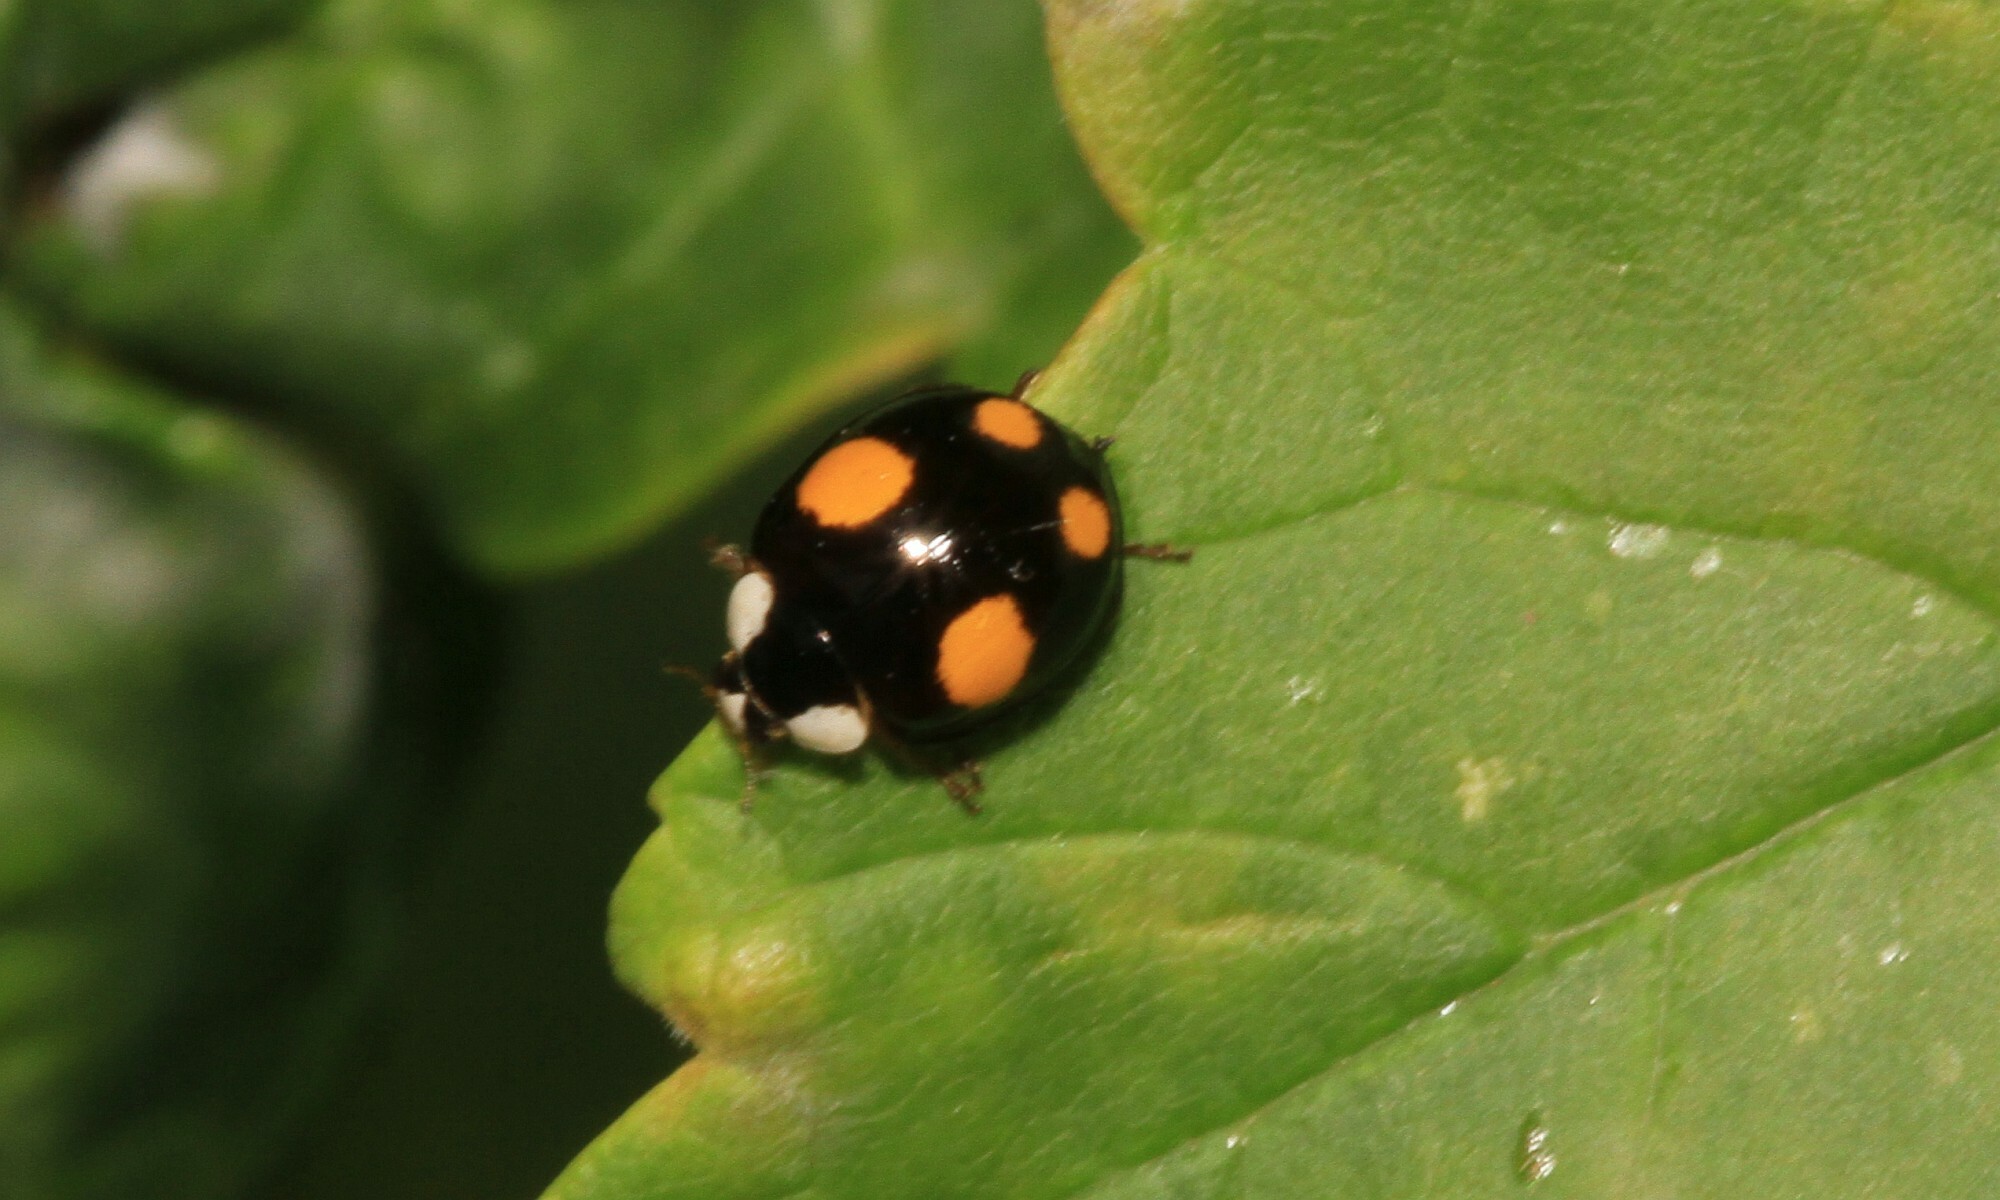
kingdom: Animalia
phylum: Arthropoda
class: Insecta
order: Coleoptera
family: Coccinellidae
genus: Harmonia
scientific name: Harmonia axyridis
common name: Harlequin ladybird
